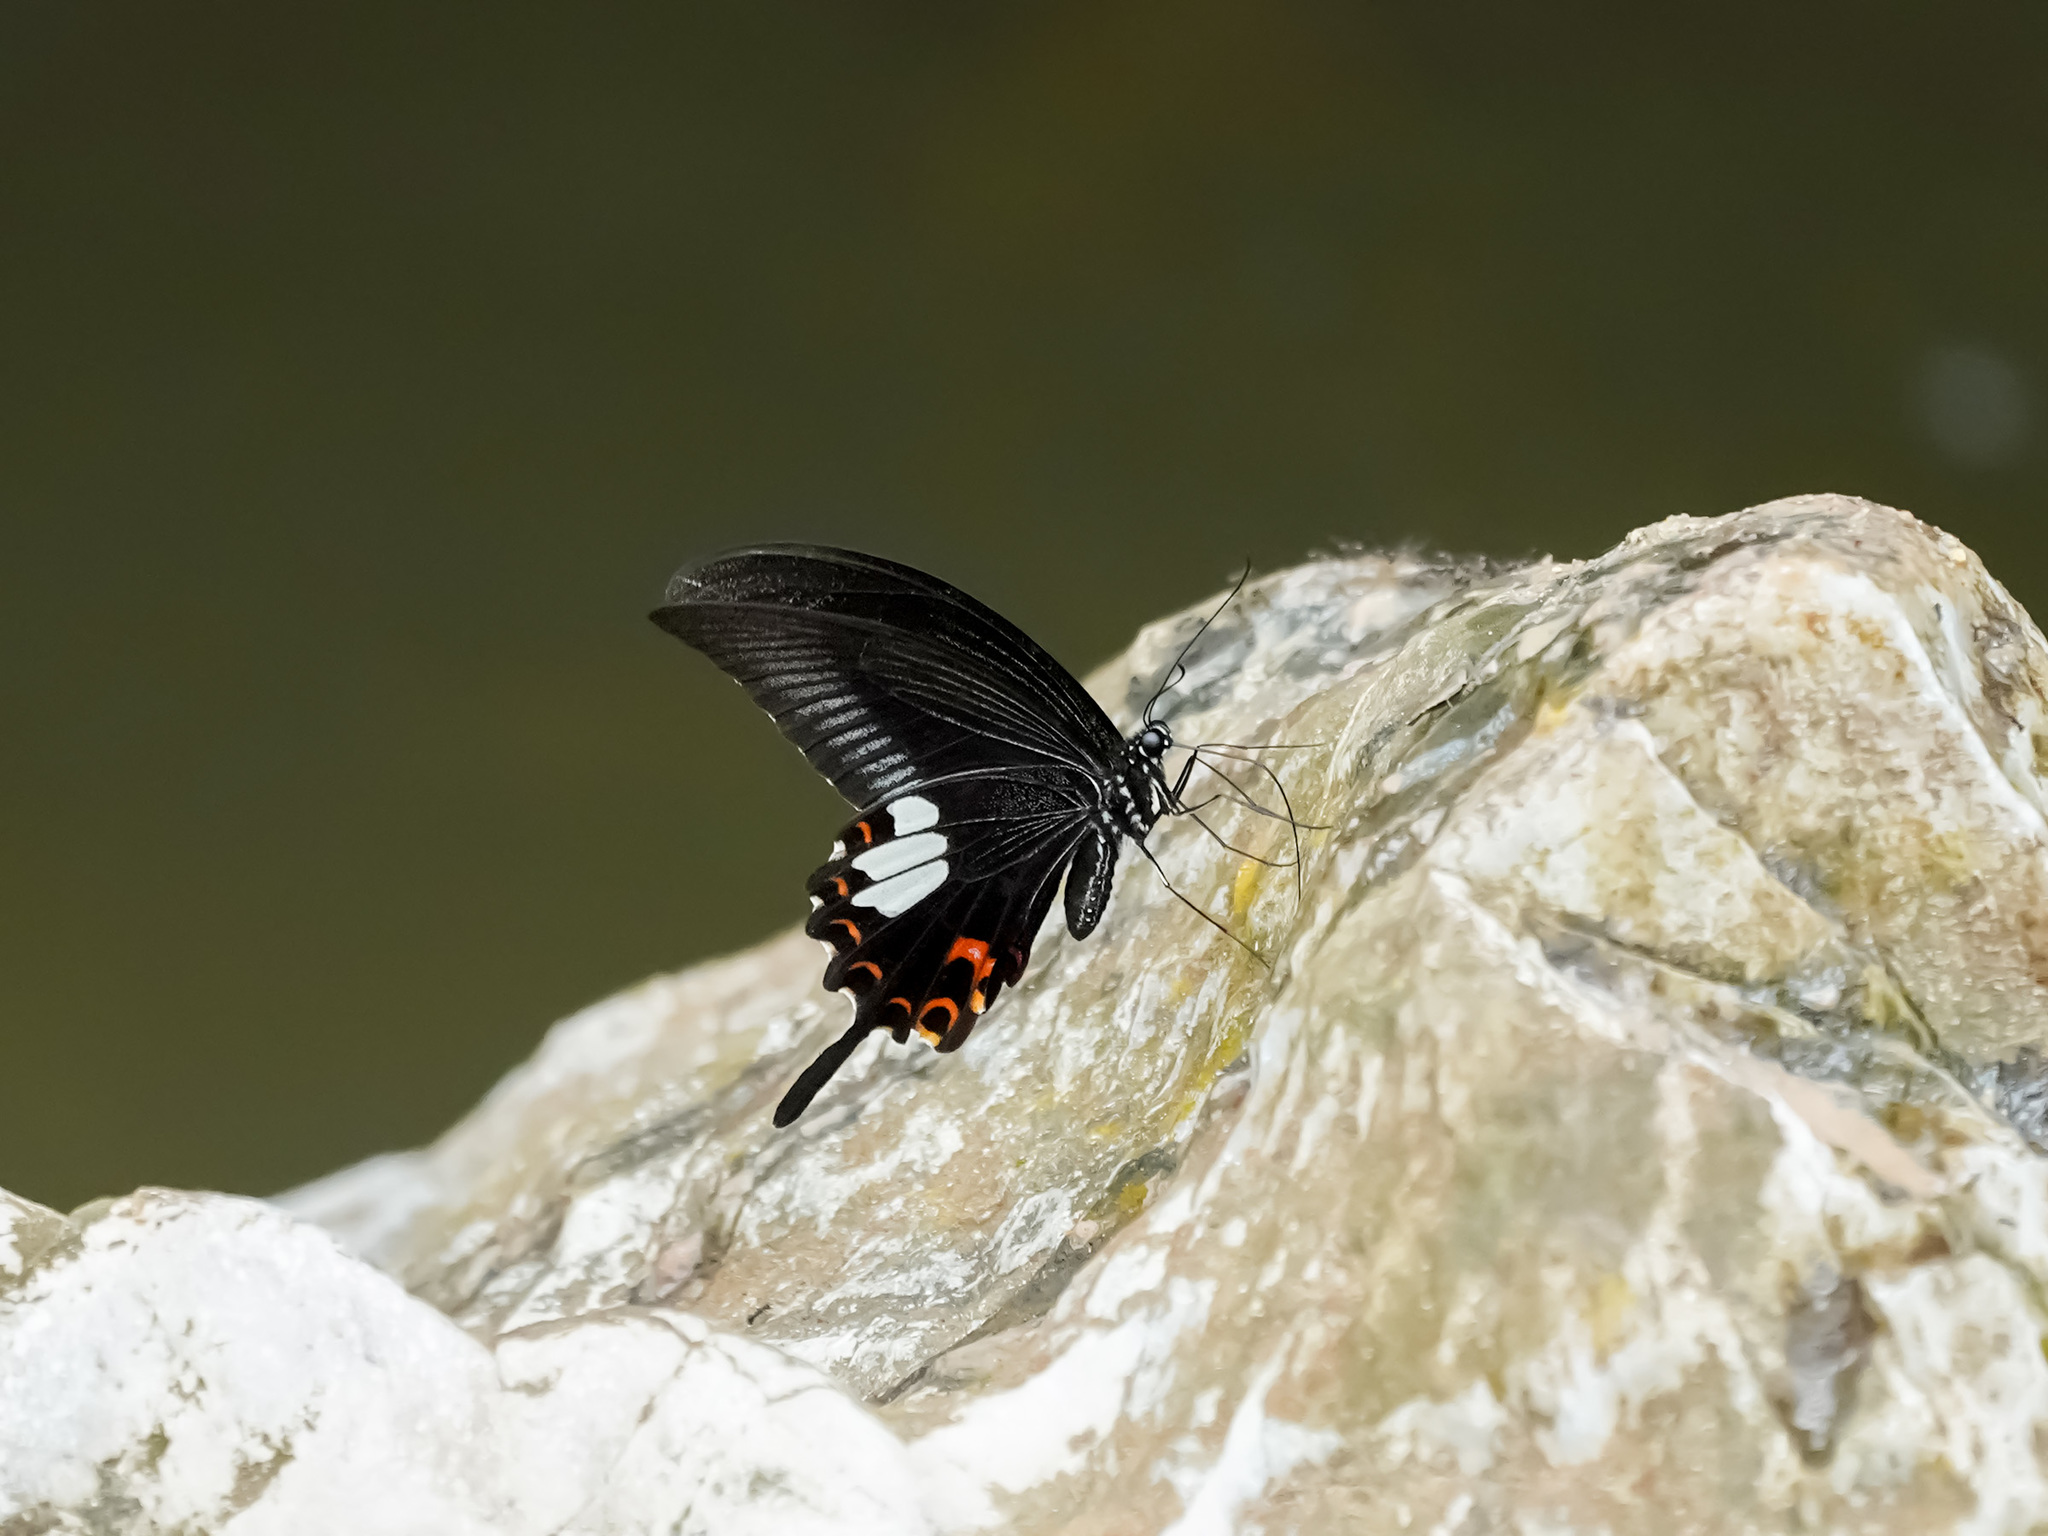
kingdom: Animalia
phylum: Arthropoda
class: Insecta
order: Lepidoptera
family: Papilionidae
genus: Papilio
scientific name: Papilio helenus
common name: Red helen
